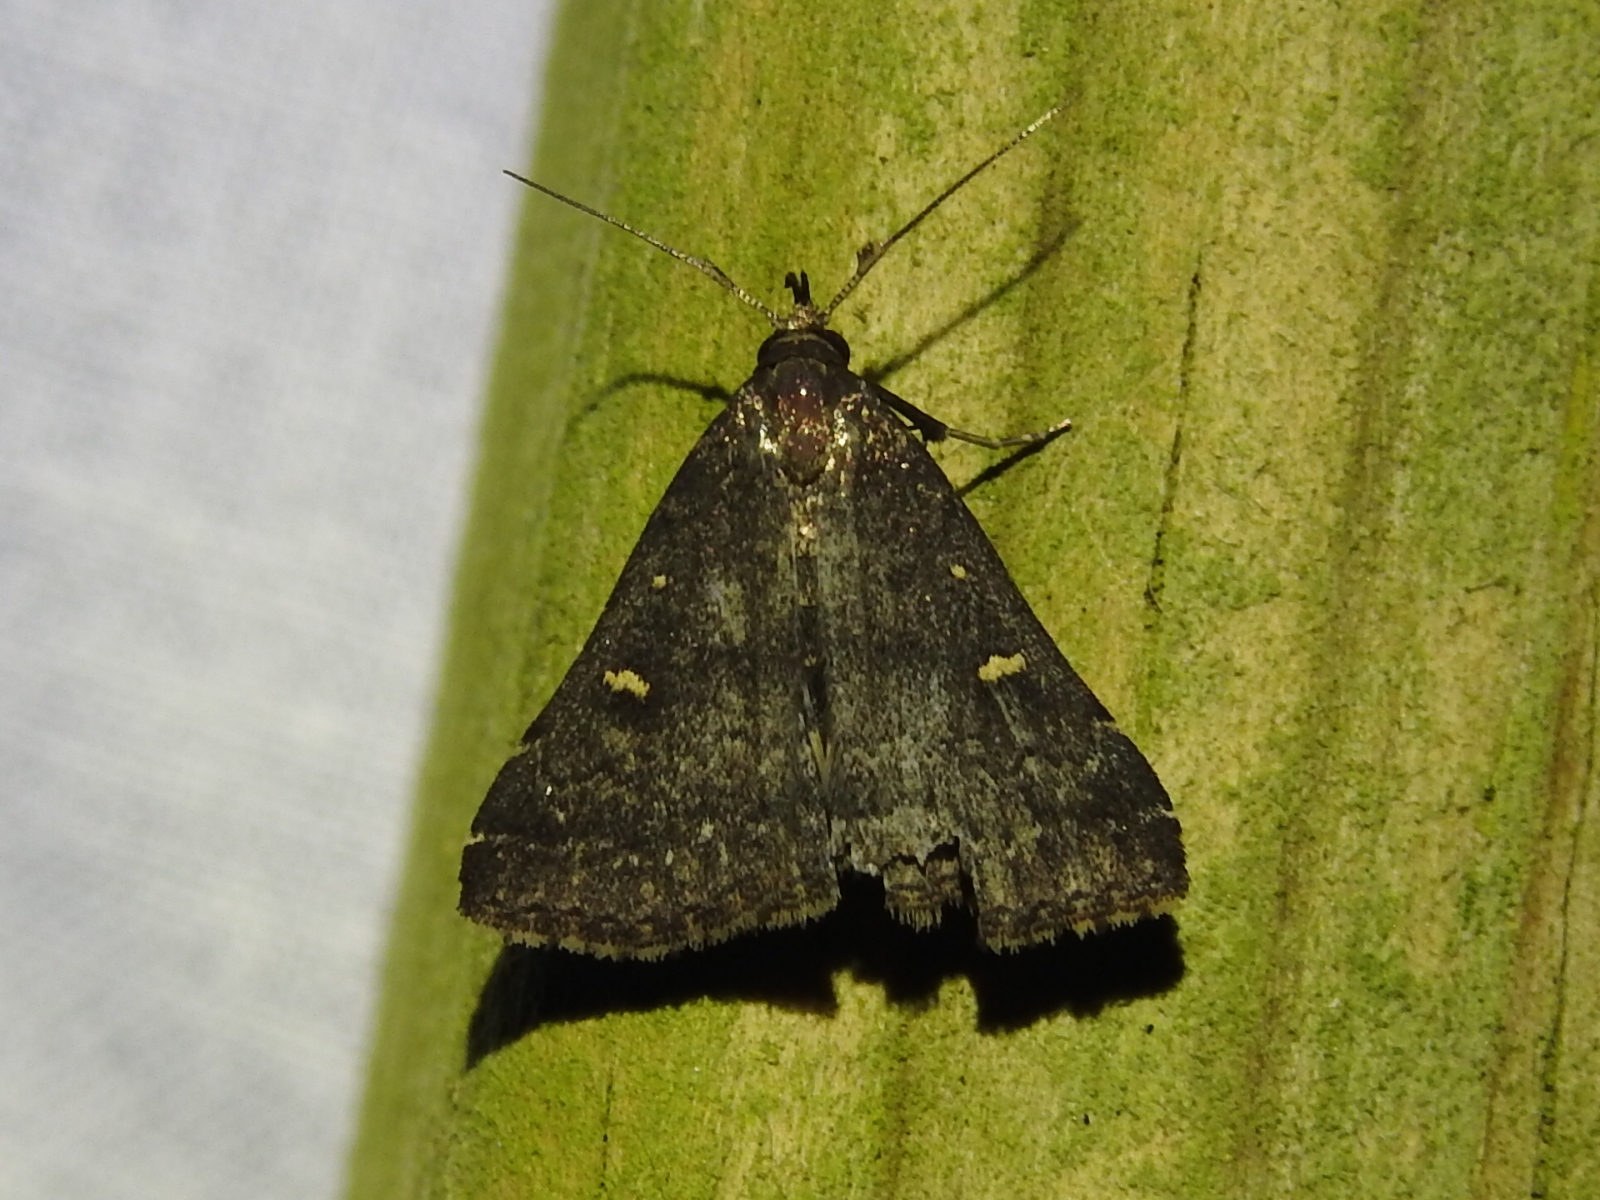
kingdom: Animalia
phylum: Arthropoda
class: Insecta
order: Lepidoptera
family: Erebidae
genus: Tetanolita
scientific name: Tetanolita mynesalis
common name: Smoky tetanolita moth
